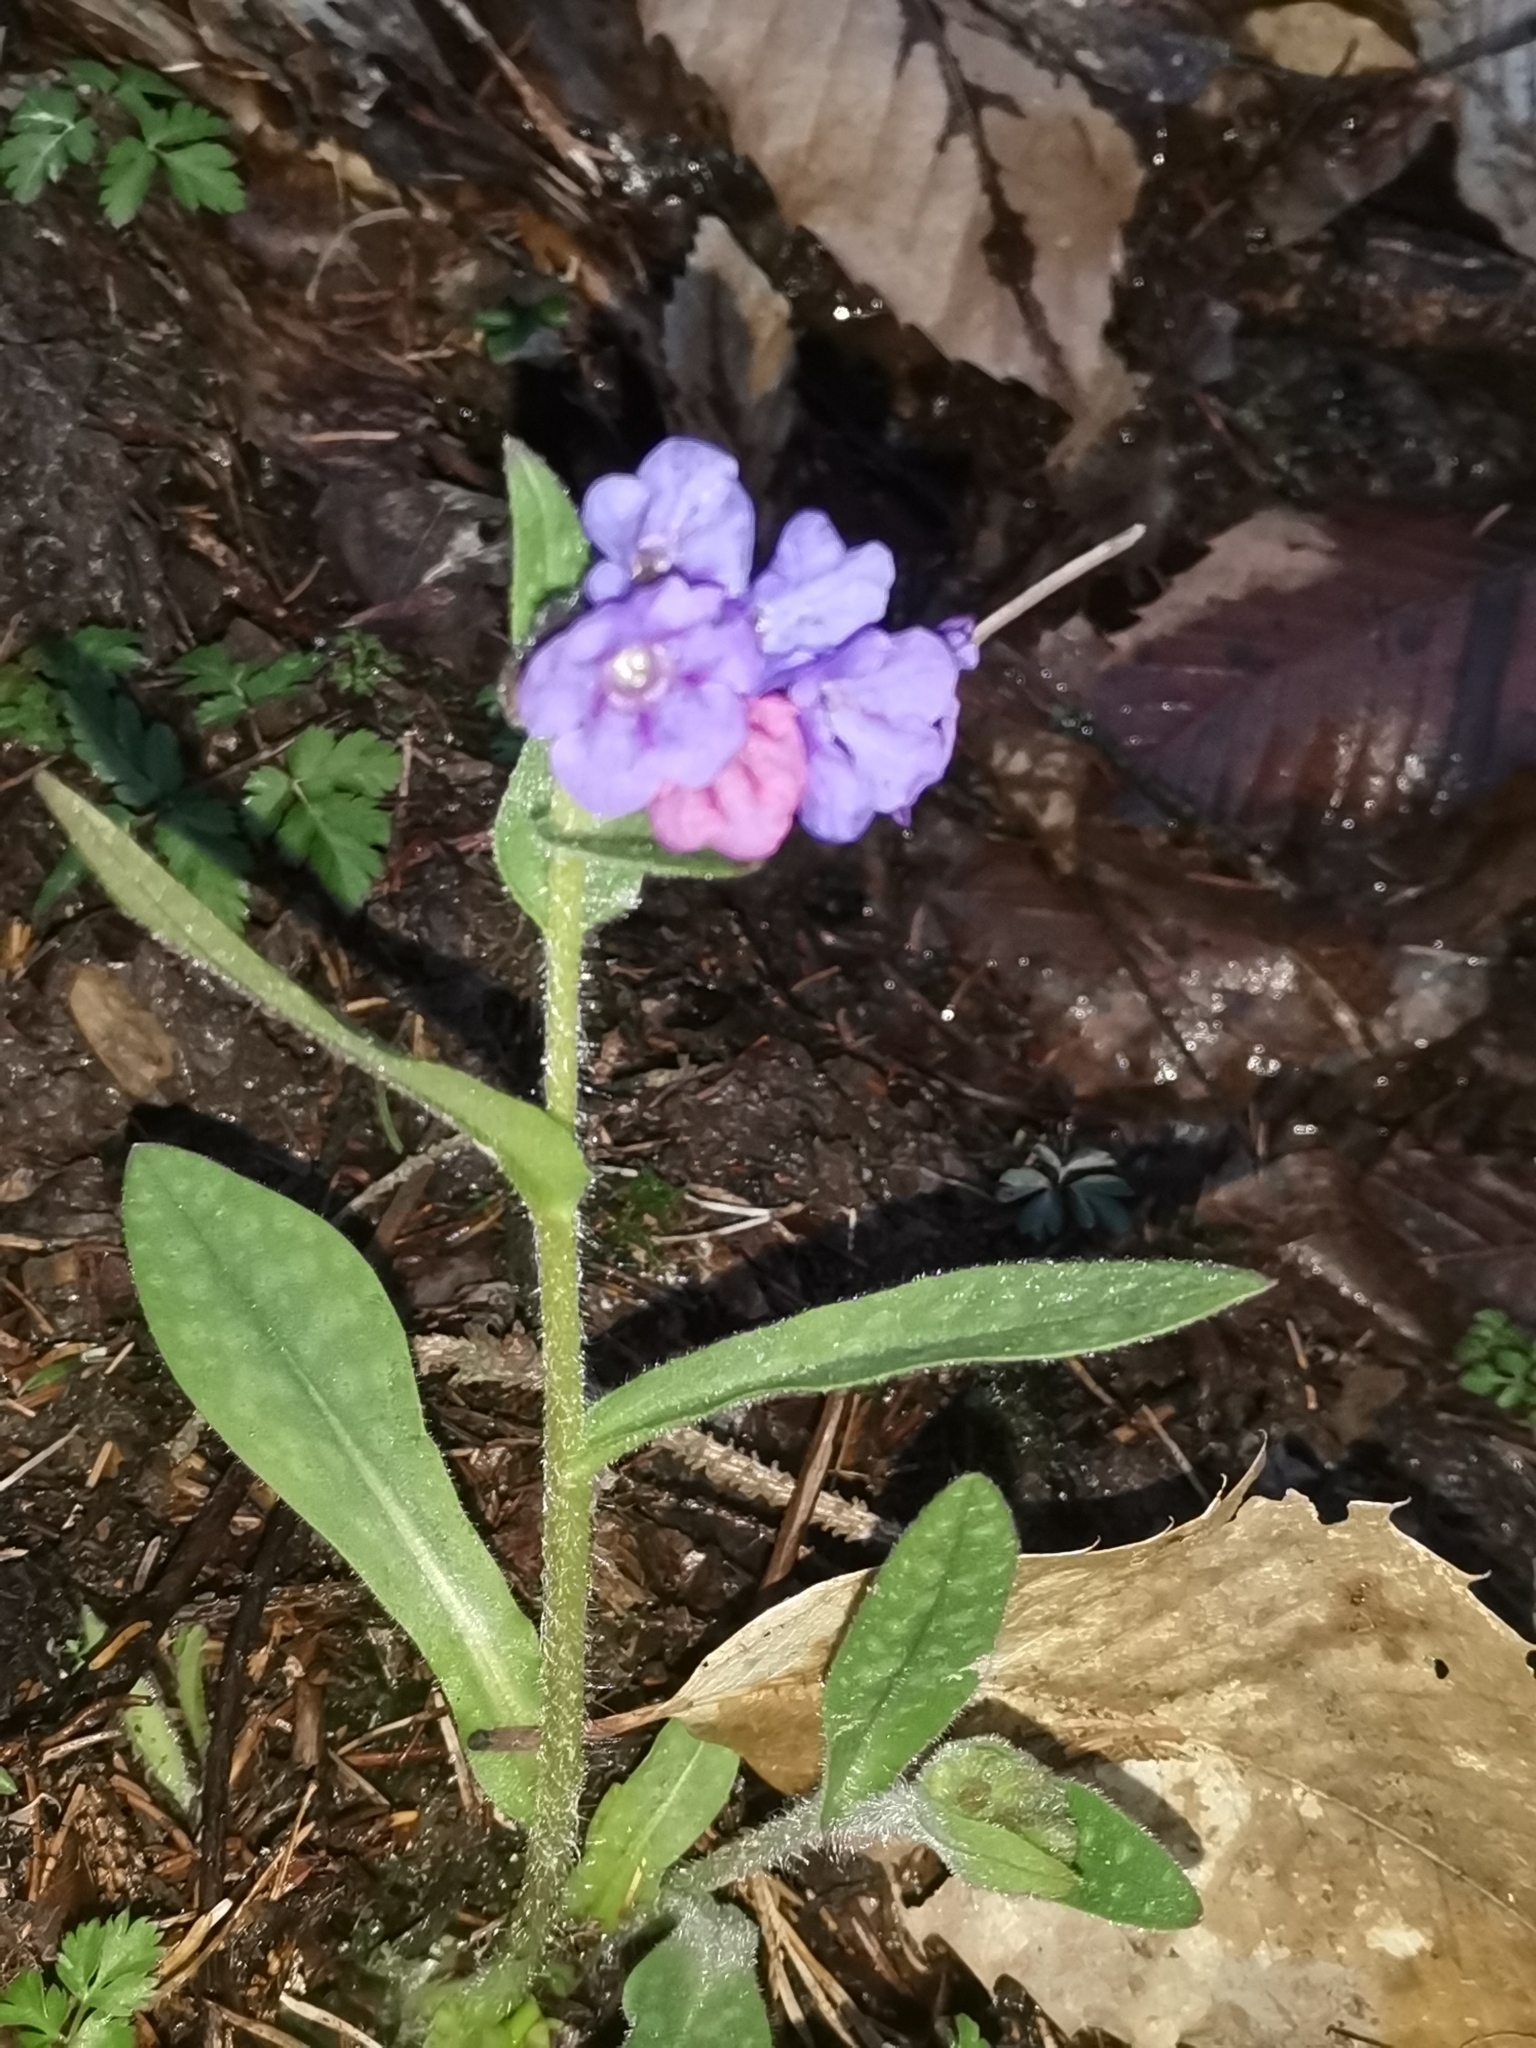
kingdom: Plantae
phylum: Tracheophyta
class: Magnoliopsida
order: Boraginales
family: Boraginaceae
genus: Pulmonaria
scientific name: Pulmonaria officinalis
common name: Lungwort
